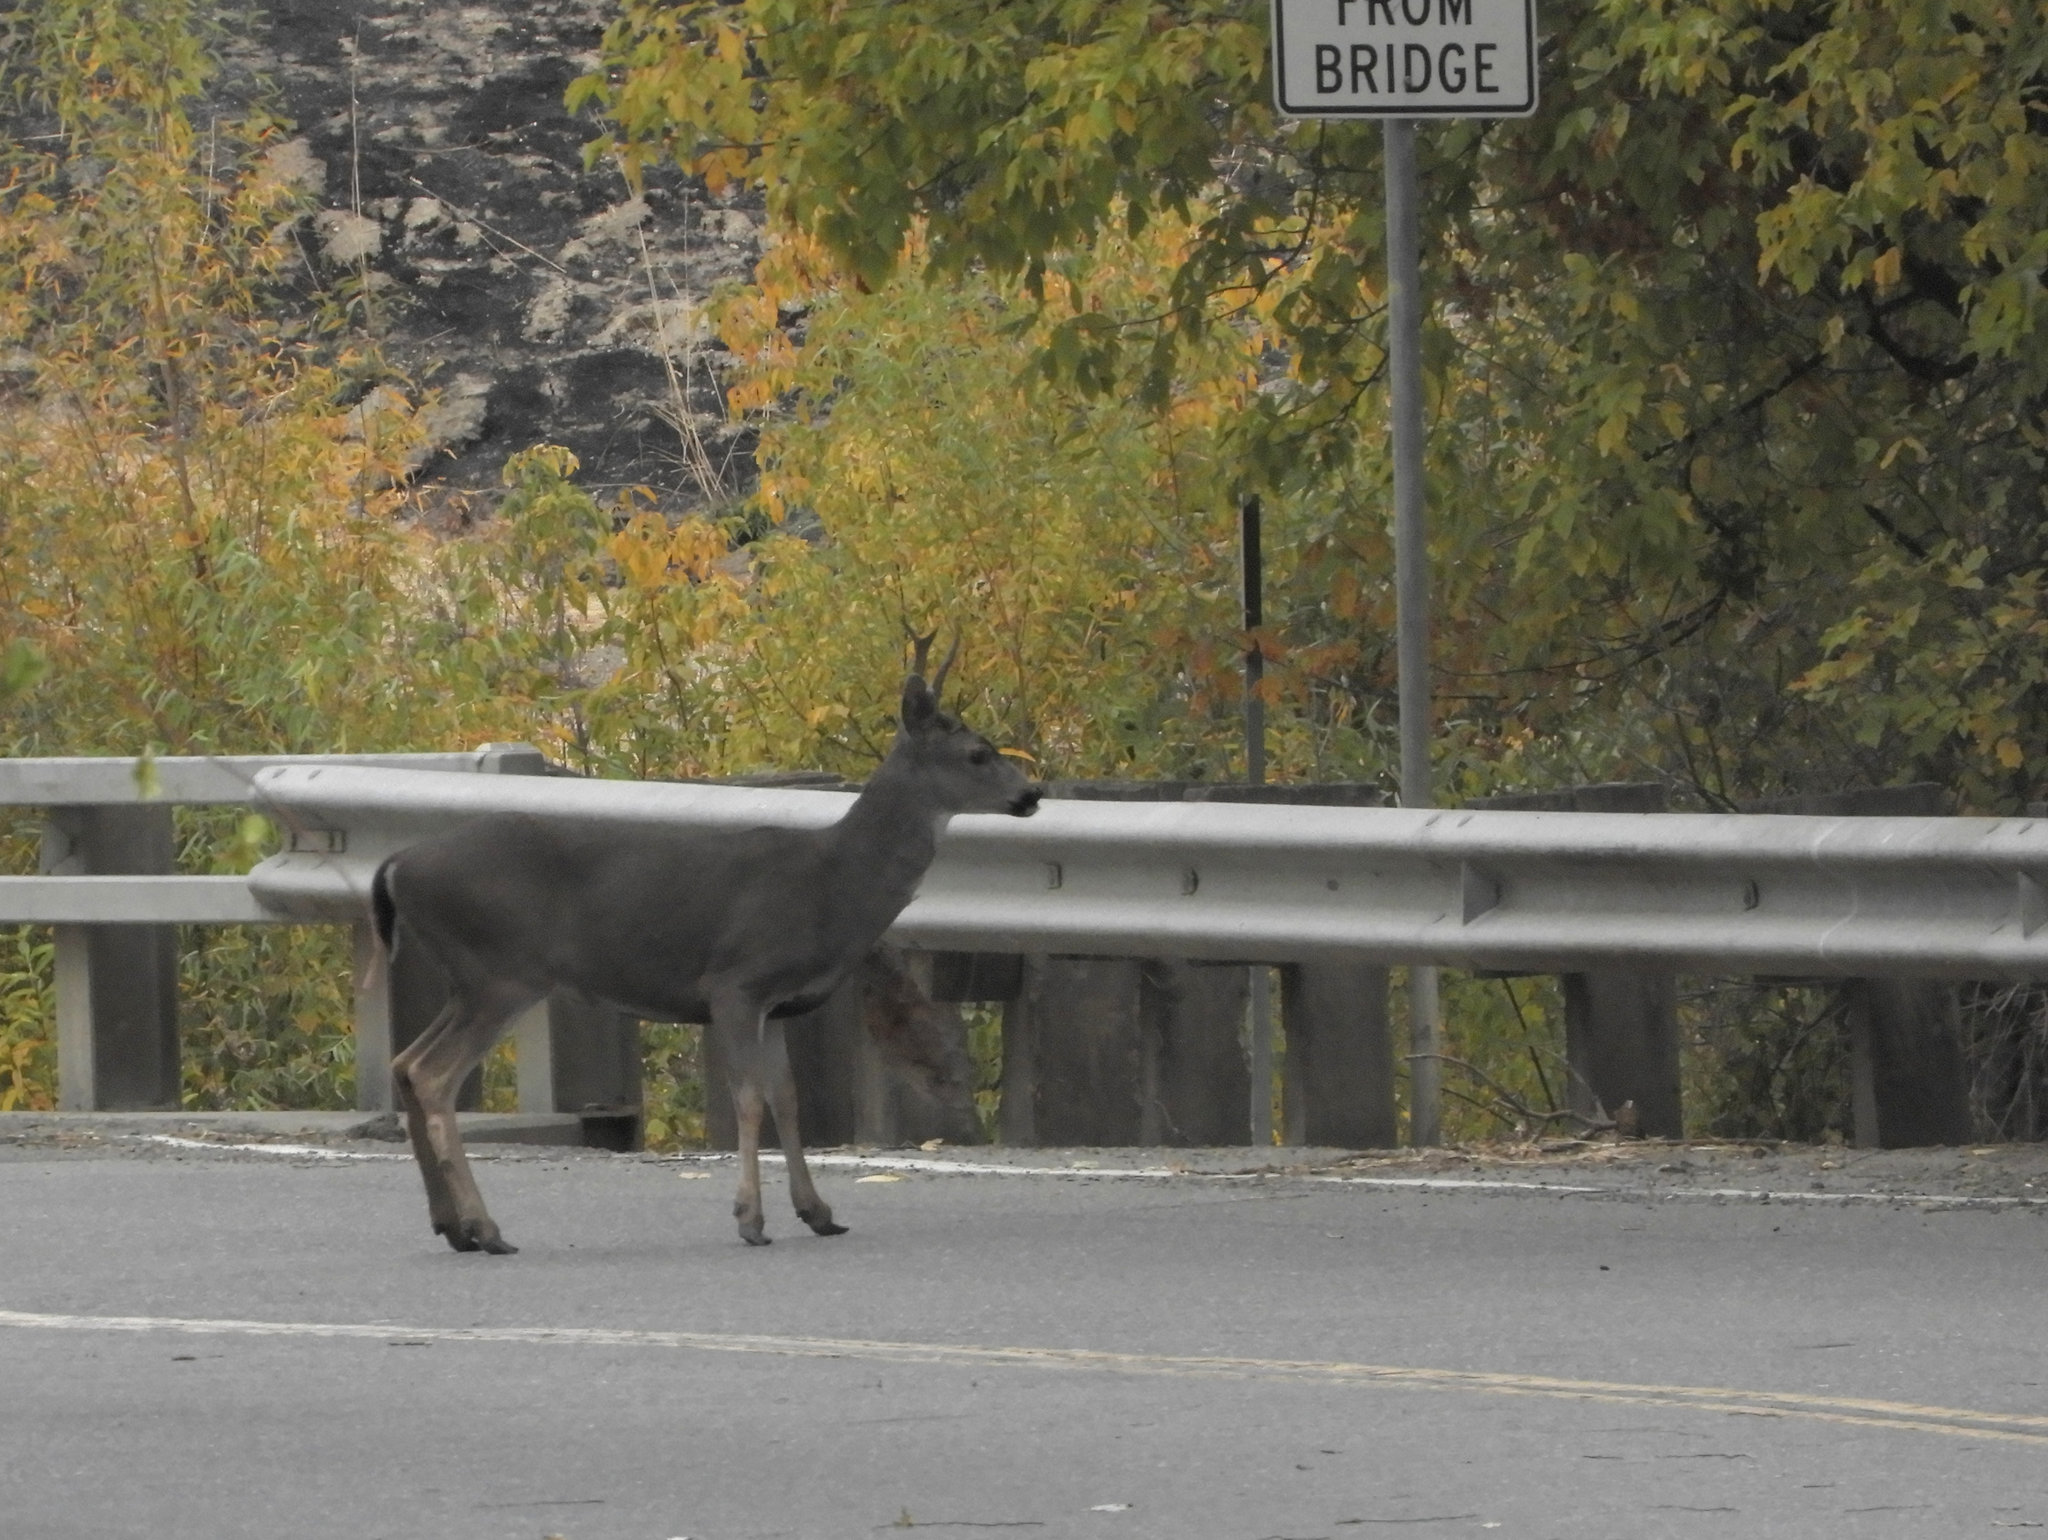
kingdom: Animalia
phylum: Chordata
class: Mammalia
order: Artiodactyla
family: Cervidae
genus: Odocoileus
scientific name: Odocoileus hemionus
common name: Mule deer
